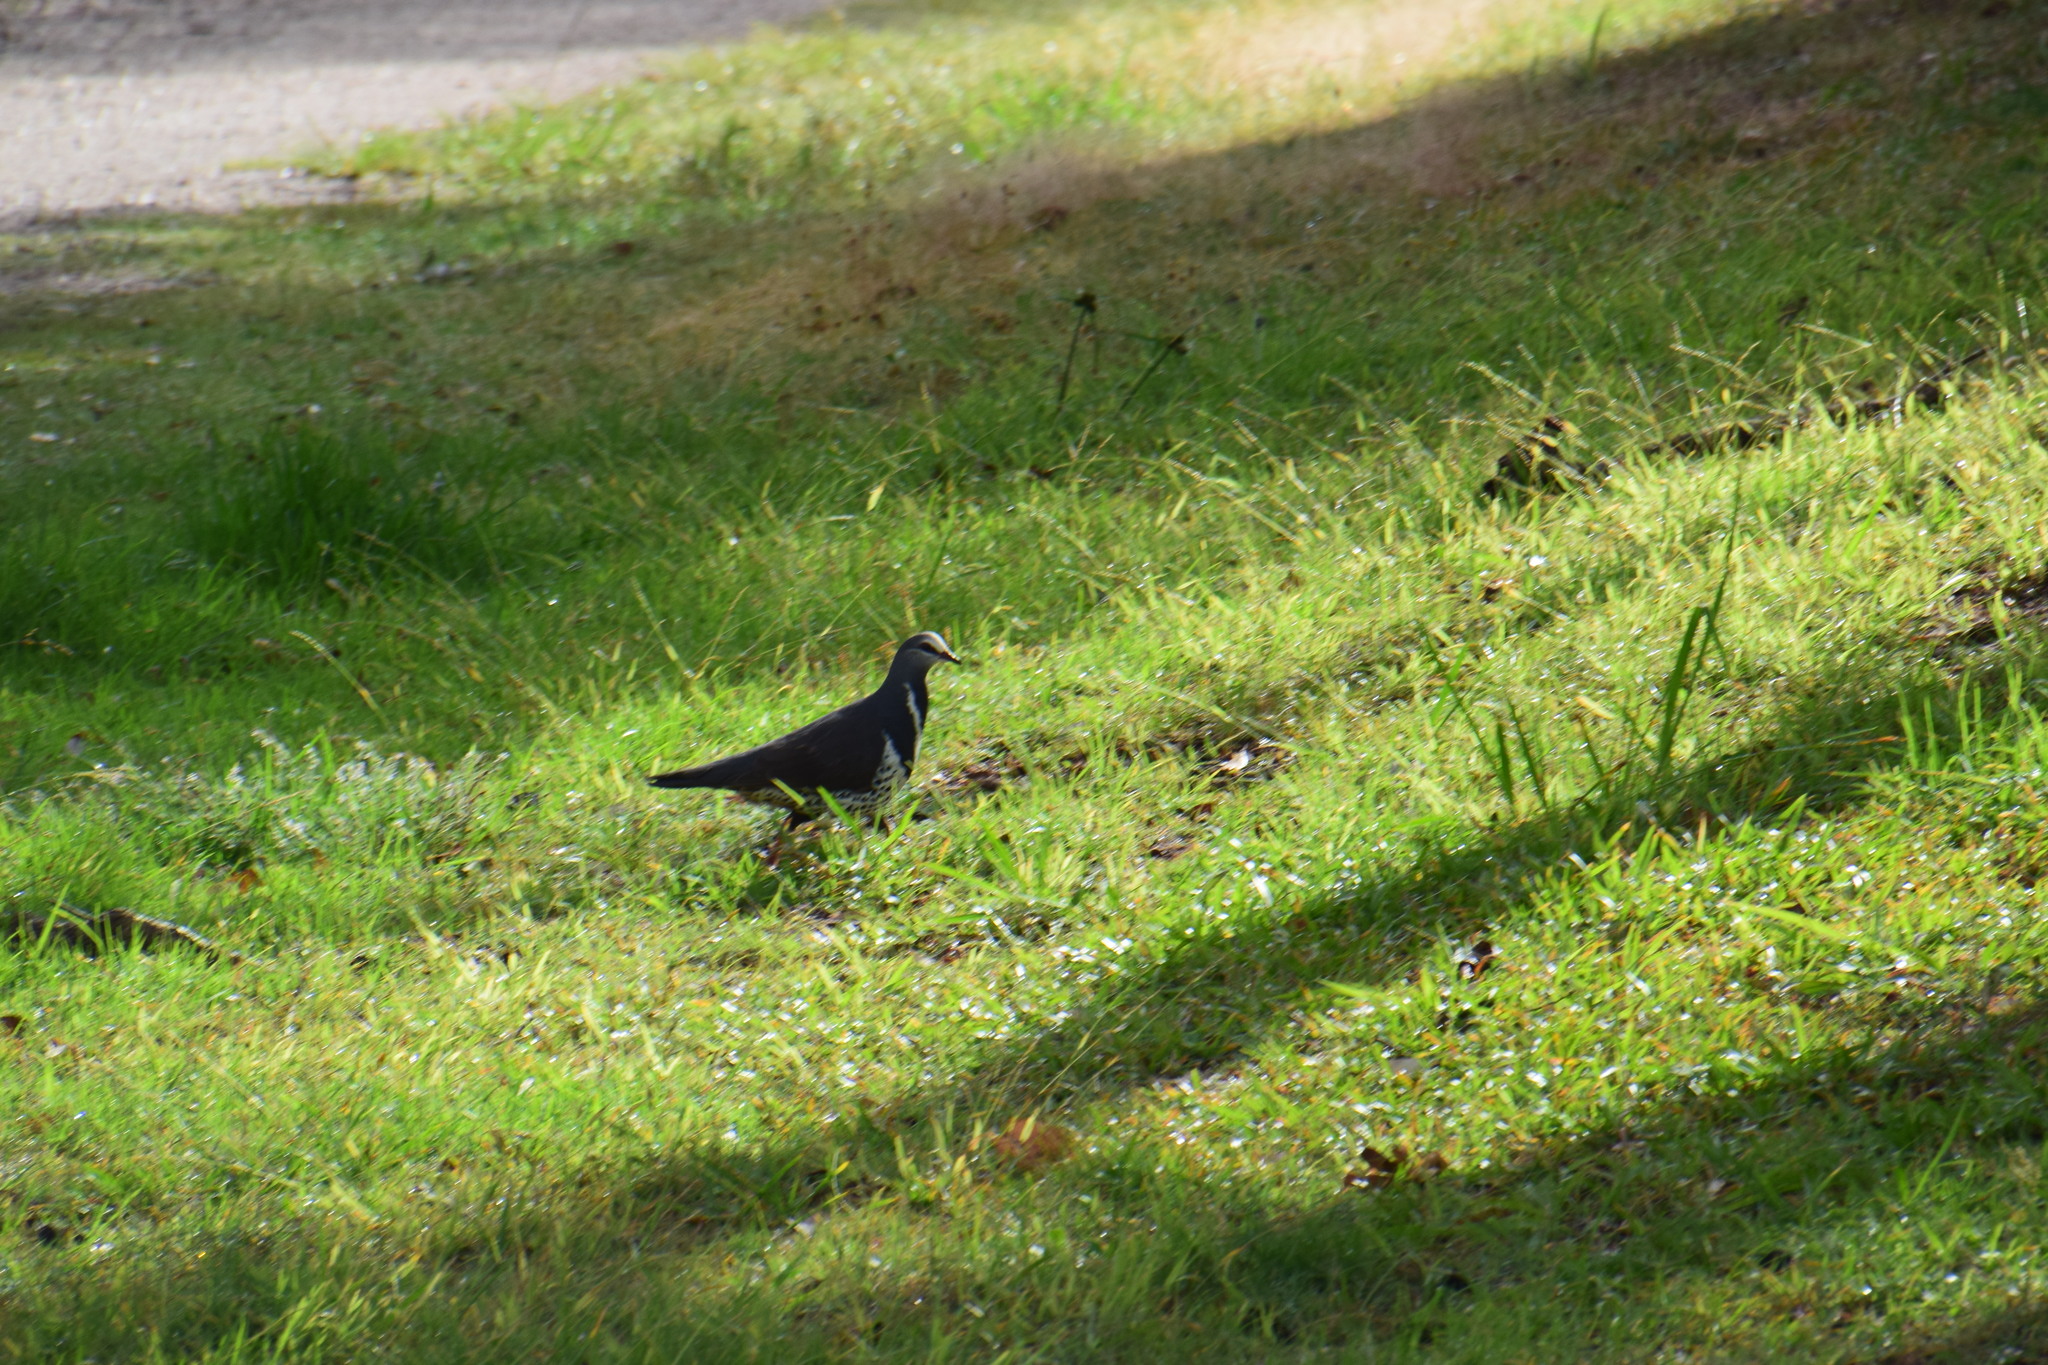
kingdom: Animalia
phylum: Chordata
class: Aves
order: Columbiformes
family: Columbidae
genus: Leucosarcia
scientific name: Leucosarcia melanoleuca
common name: Wonga pigeon
